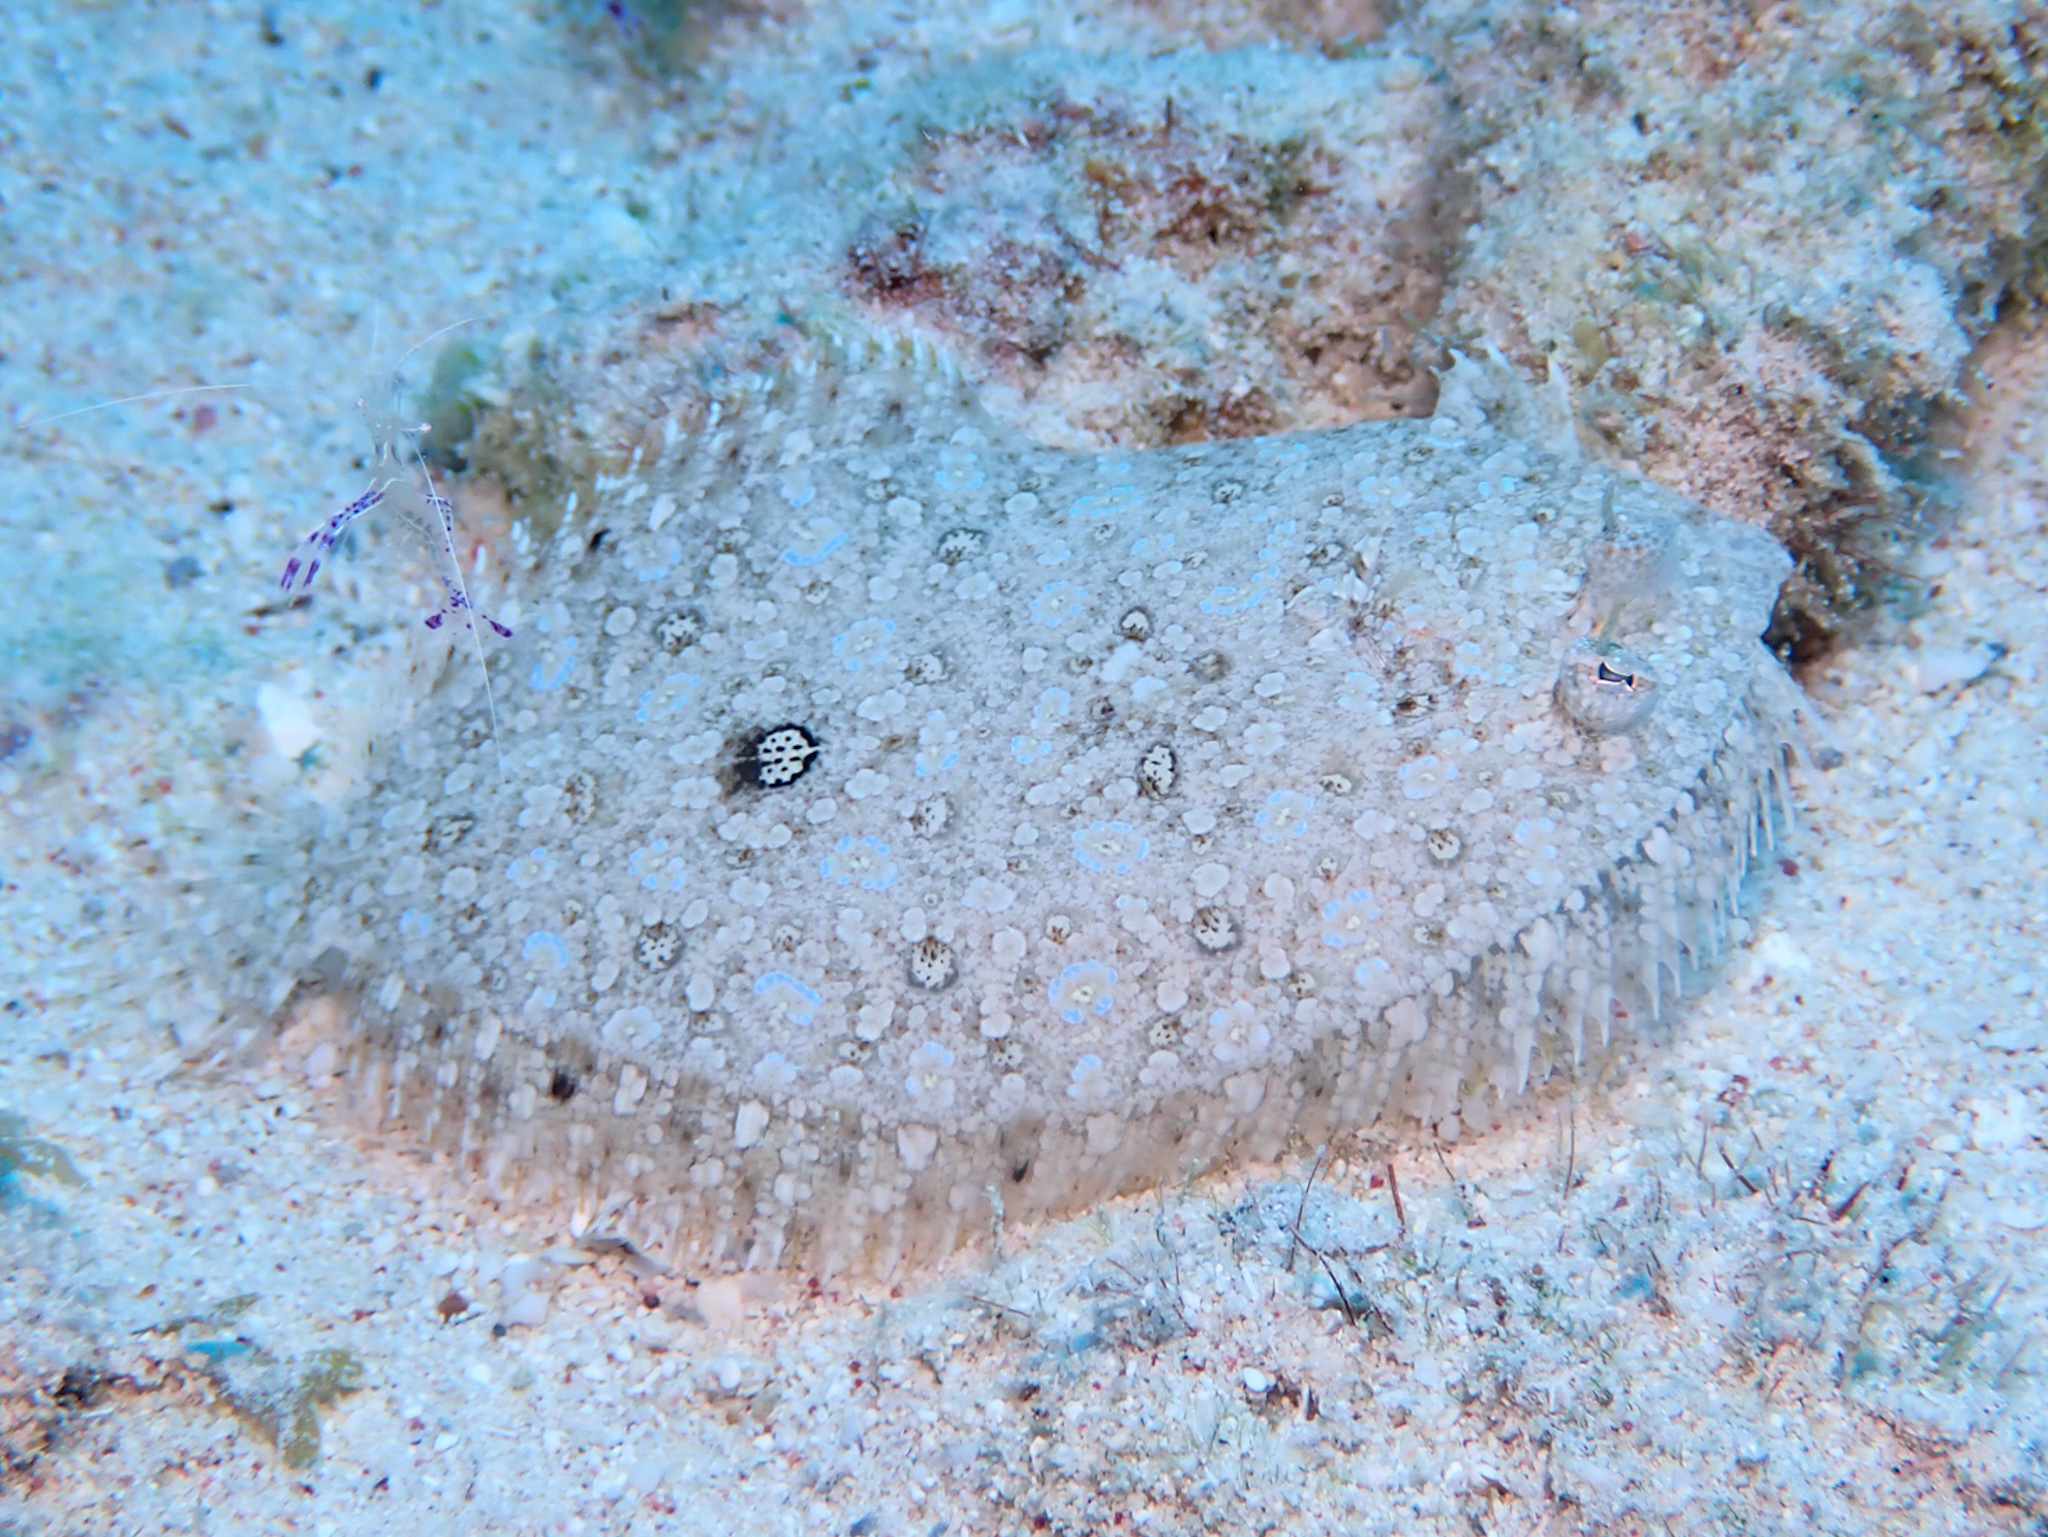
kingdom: Animalia
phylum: Chordata
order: Pleuronectiformes
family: Bothidae
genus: Bothus
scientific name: Bothus maculiferus
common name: Mottled flounder
